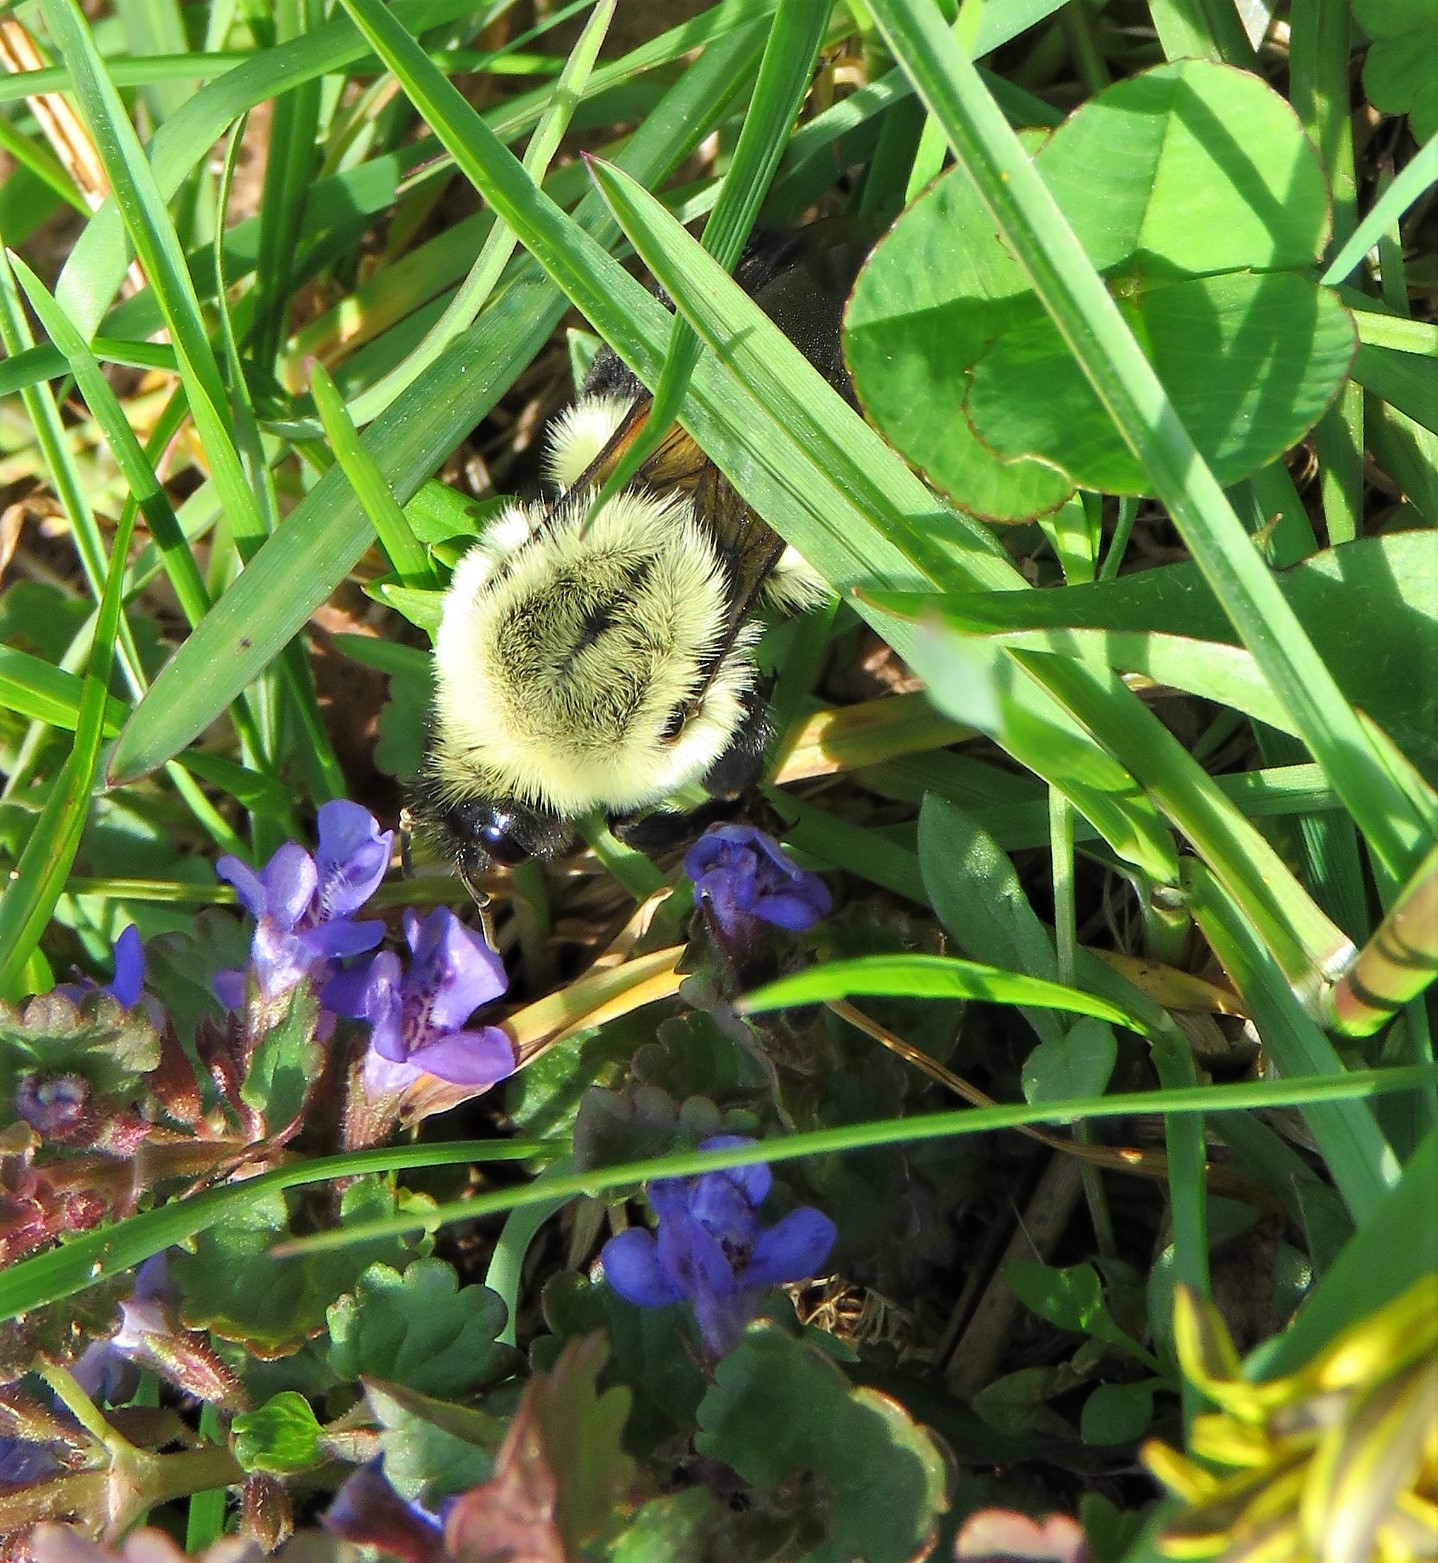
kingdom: Animalia
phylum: Arthropoda
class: Insecta
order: Hymenoptera
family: Apidae
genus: Bombus
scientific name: Bombus impatiens
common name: Common eastern bumble bee
